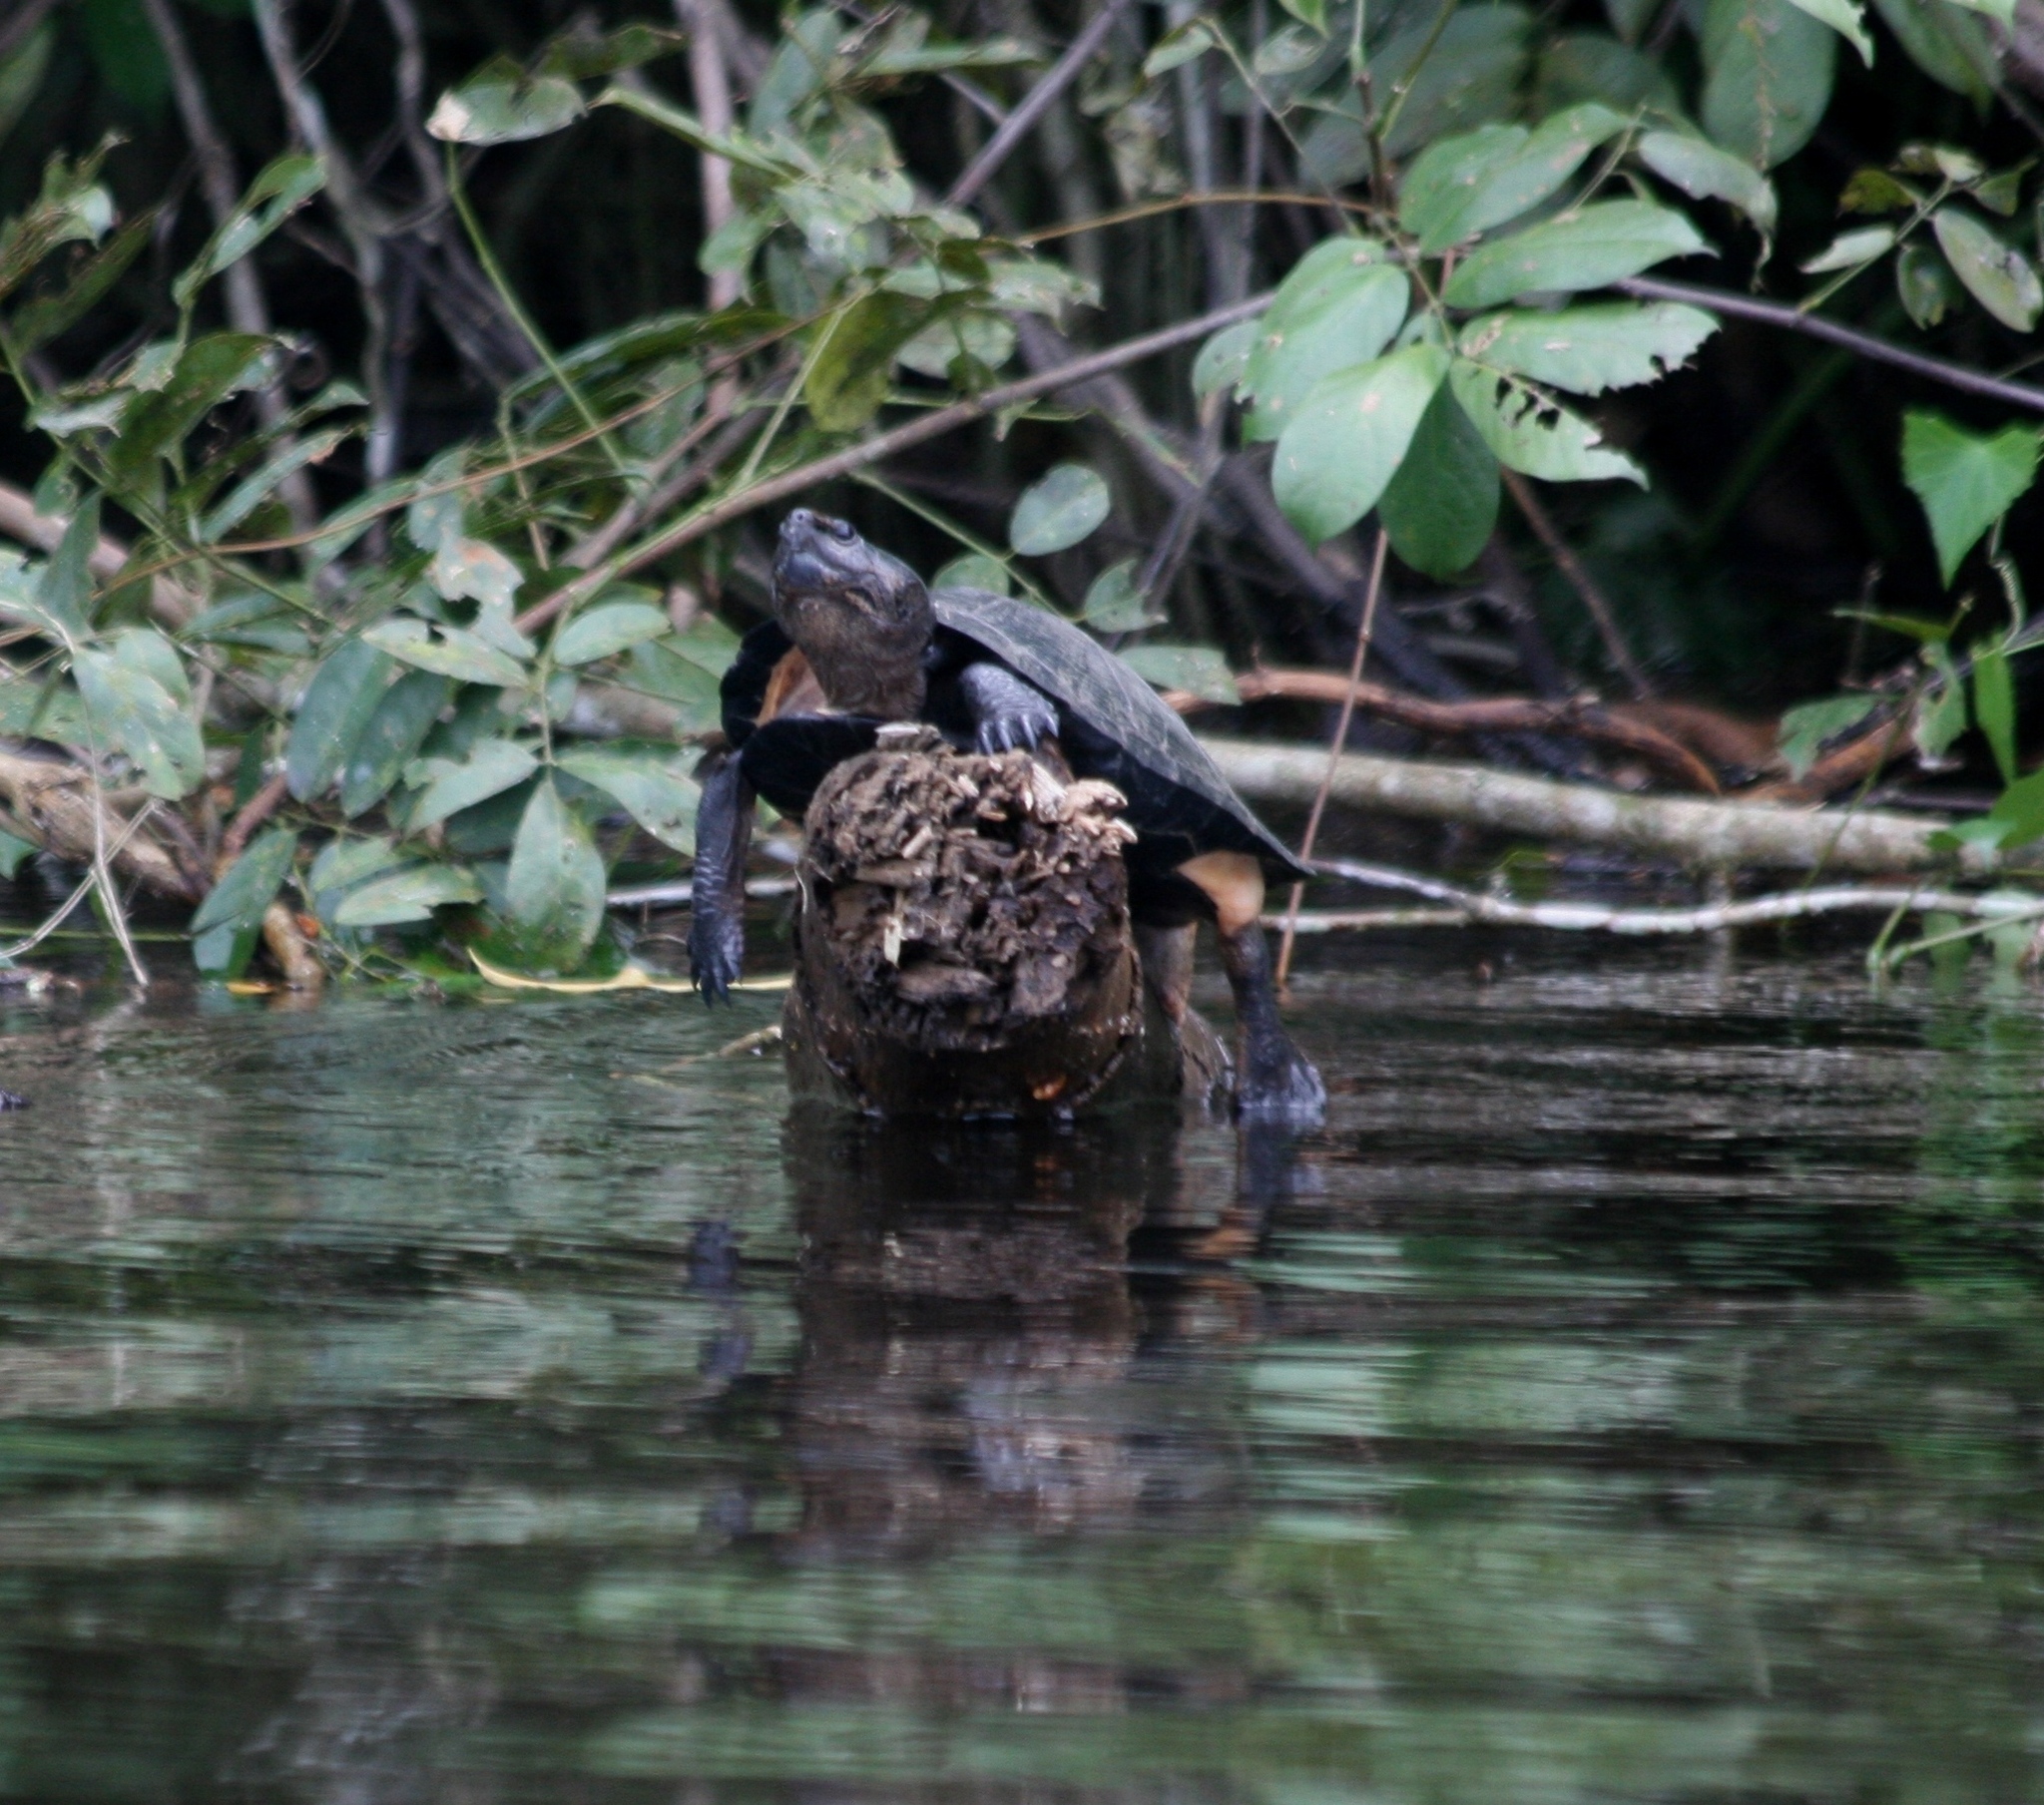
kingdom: Animalia
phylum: Chordata
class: Testudines
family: Pelomedusidae
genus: Pelusios
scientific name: Pelusios niger
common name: West african black mud turtle
